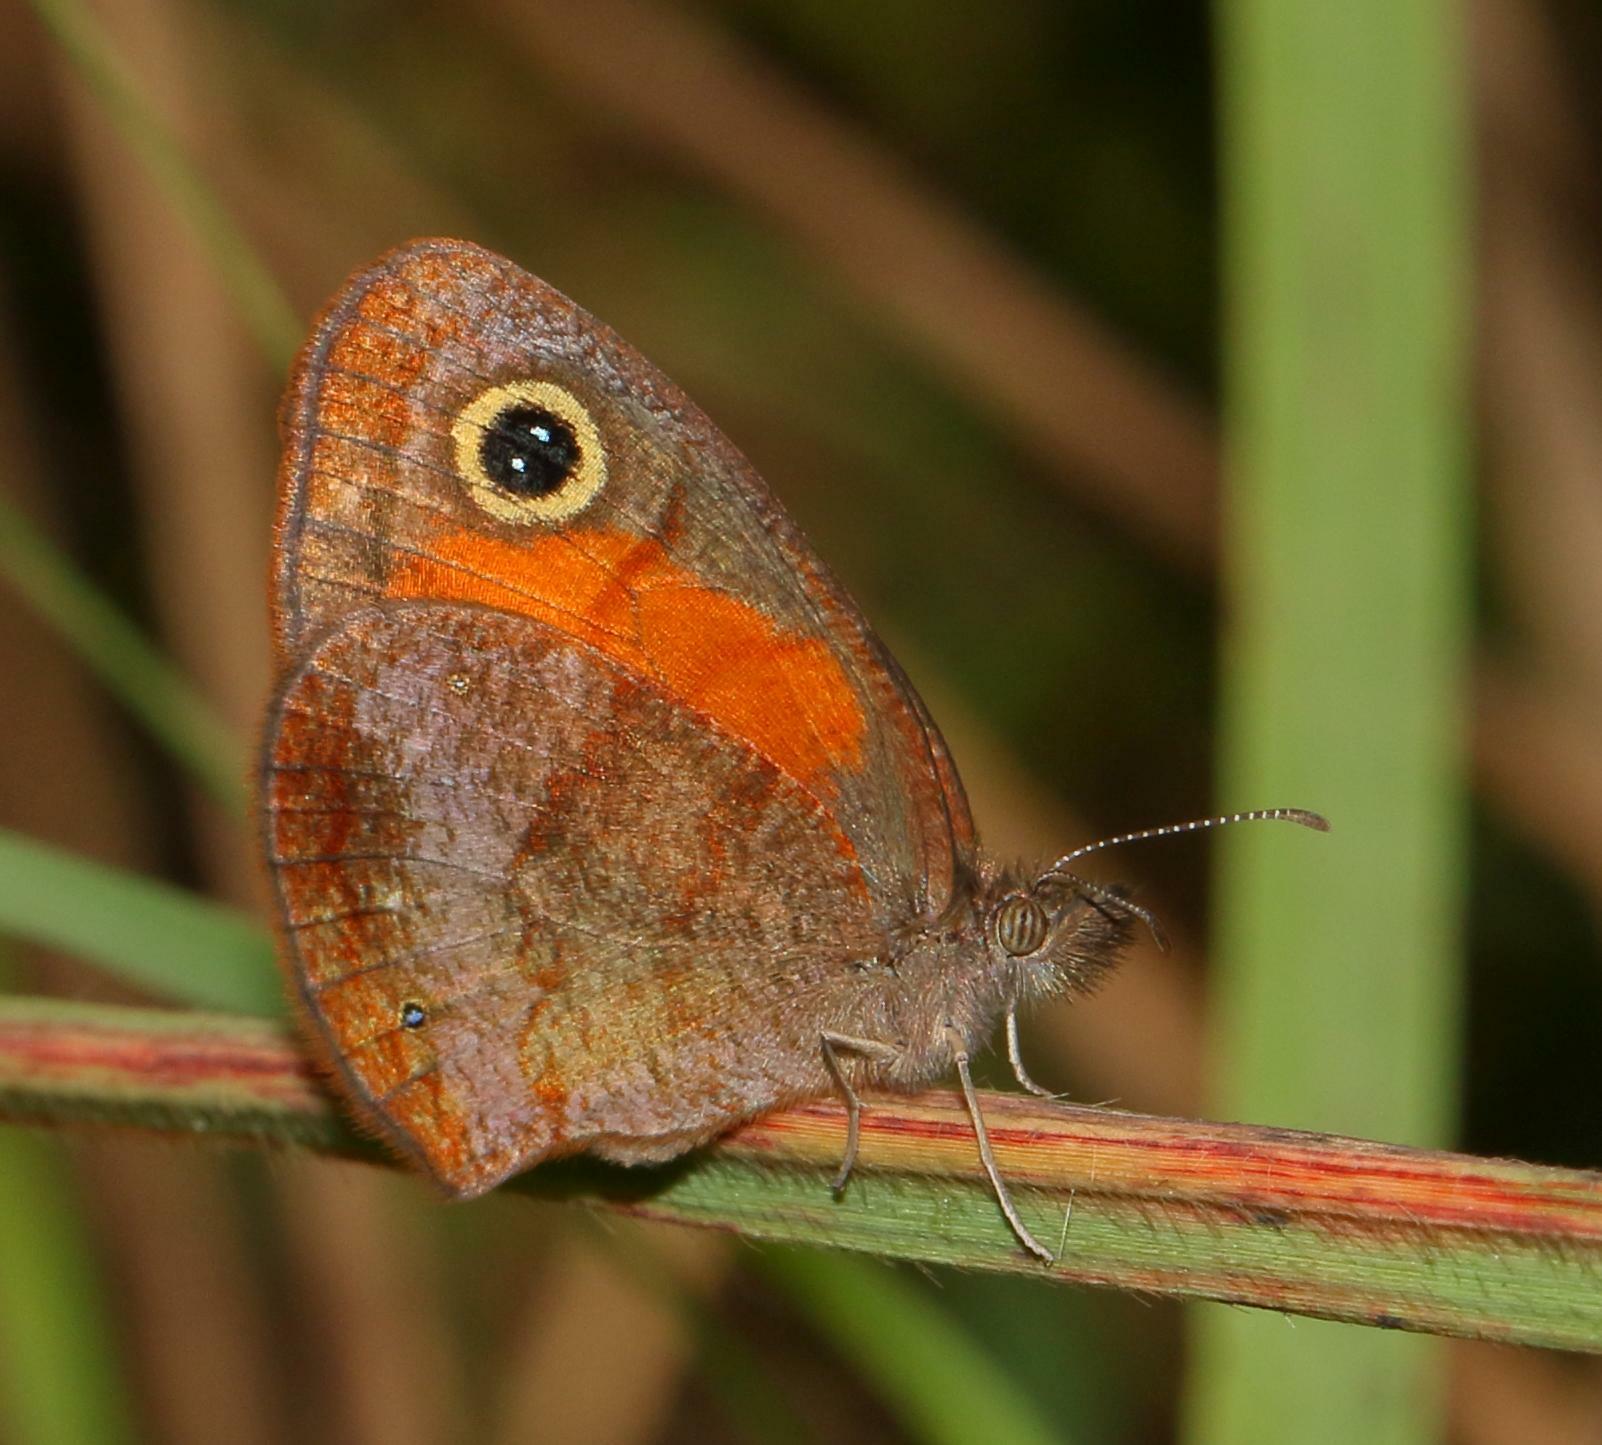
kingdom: Animalia
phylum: Arthropoda
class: Insecta
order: Lepidoptera
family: Nymphalidae
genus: Cassionympha
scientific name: Cassionympha cassius
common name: Rainforest brown
